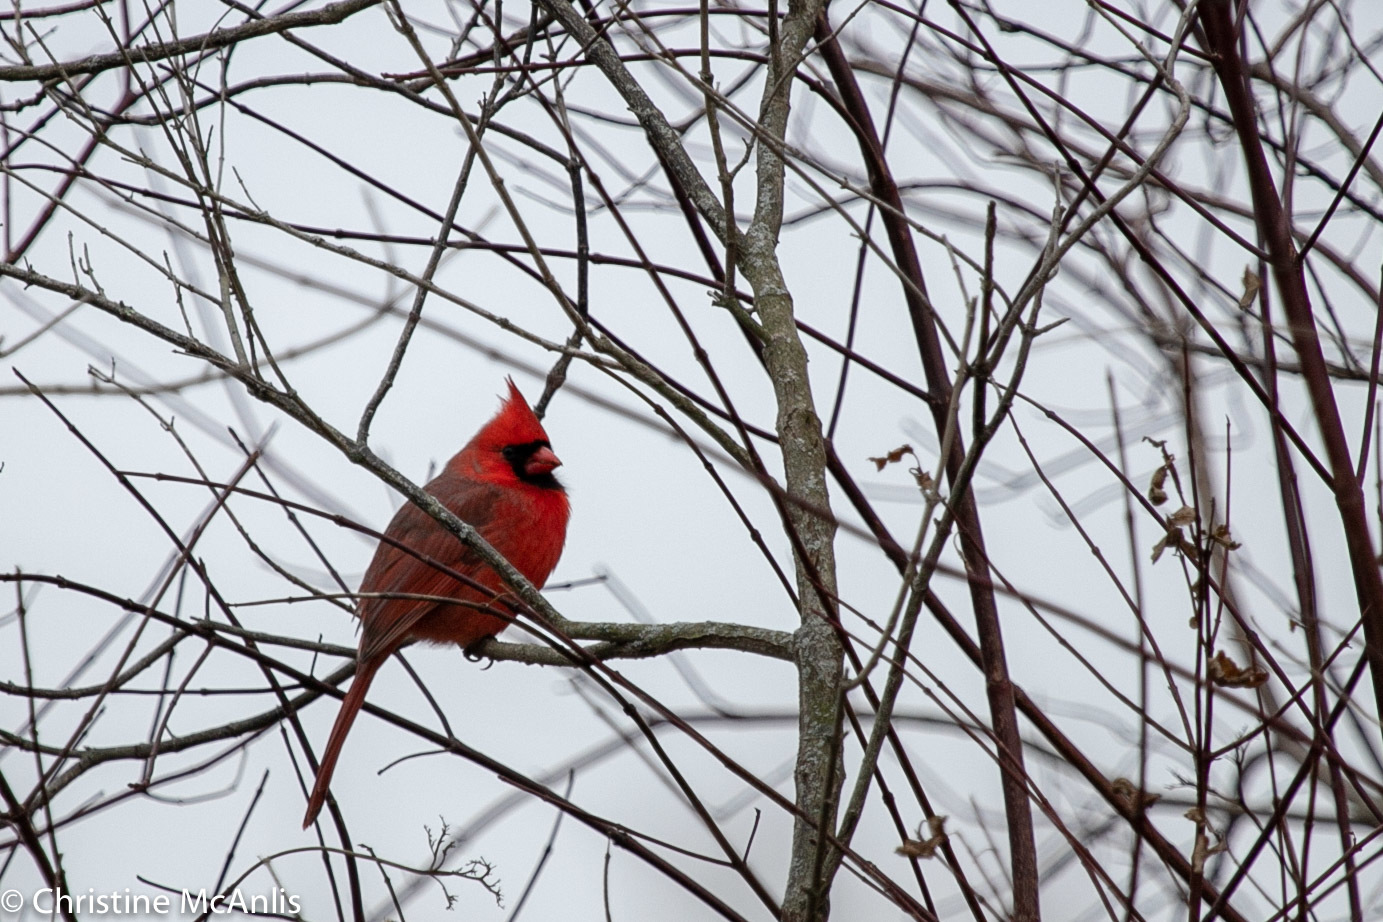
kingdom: Animalia
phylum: Chordata
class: Aves
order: Passeriformes
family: Cardinalidae
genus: Cardinalis
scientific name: Cardinalis cardinalis
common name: Northern cardinal
